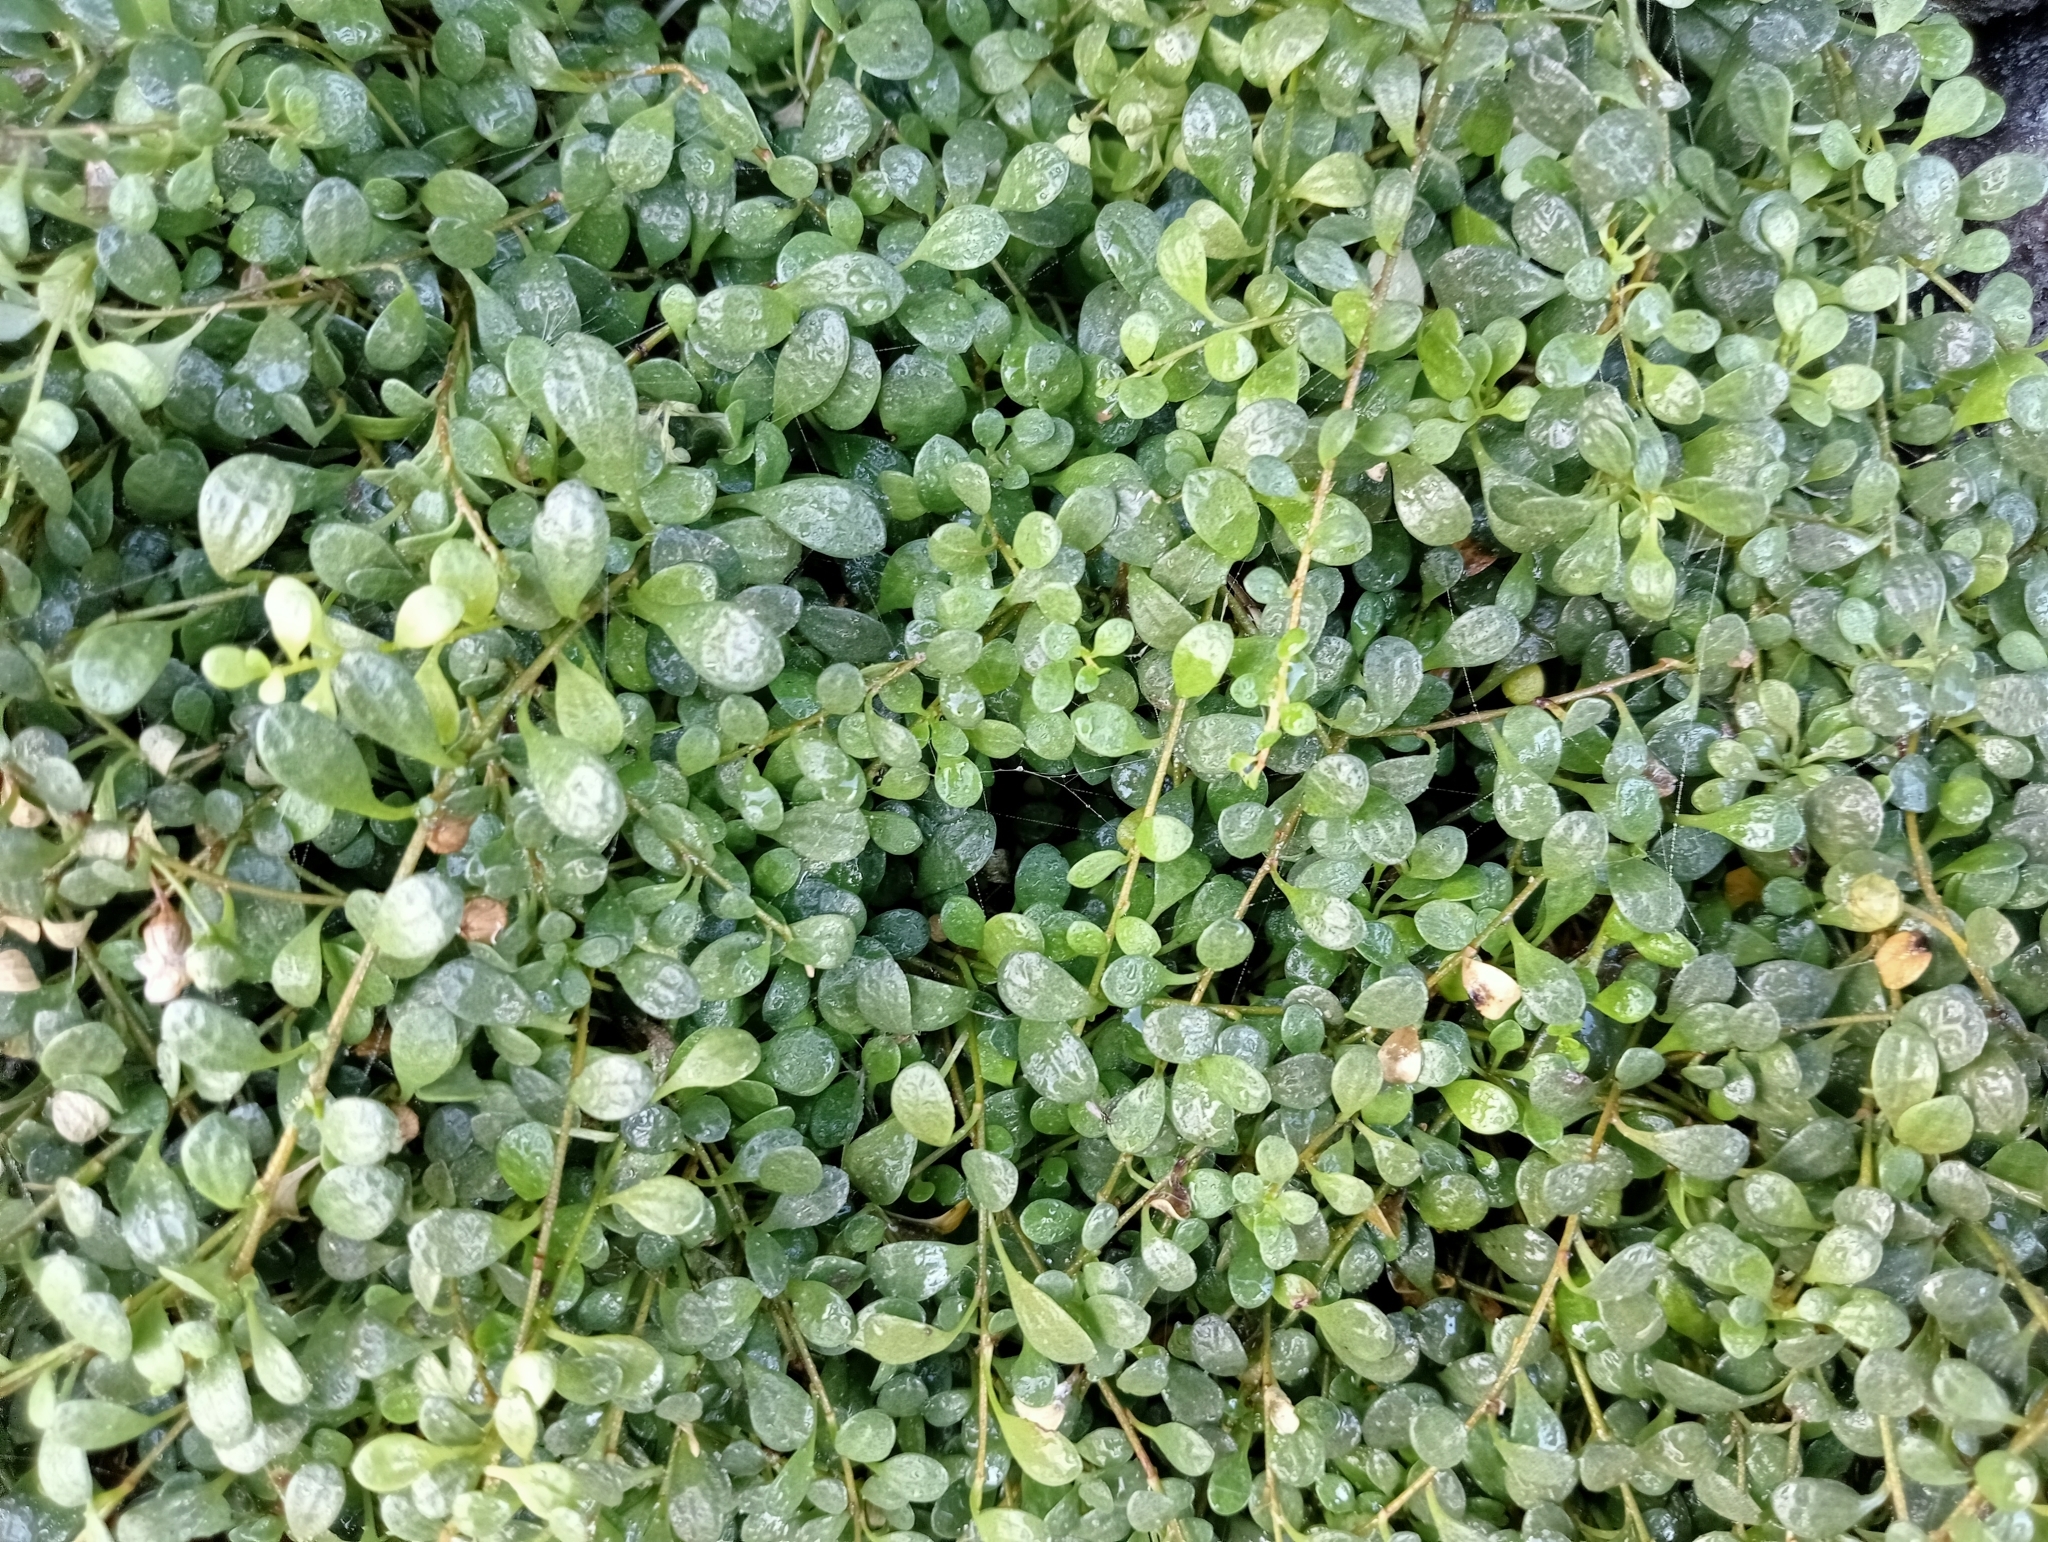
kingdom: Plantae
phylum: Tracheophyta
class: Magnoliopsida
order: Ericales
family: Primulaceae
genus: Samolus
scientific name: Samolus repens
